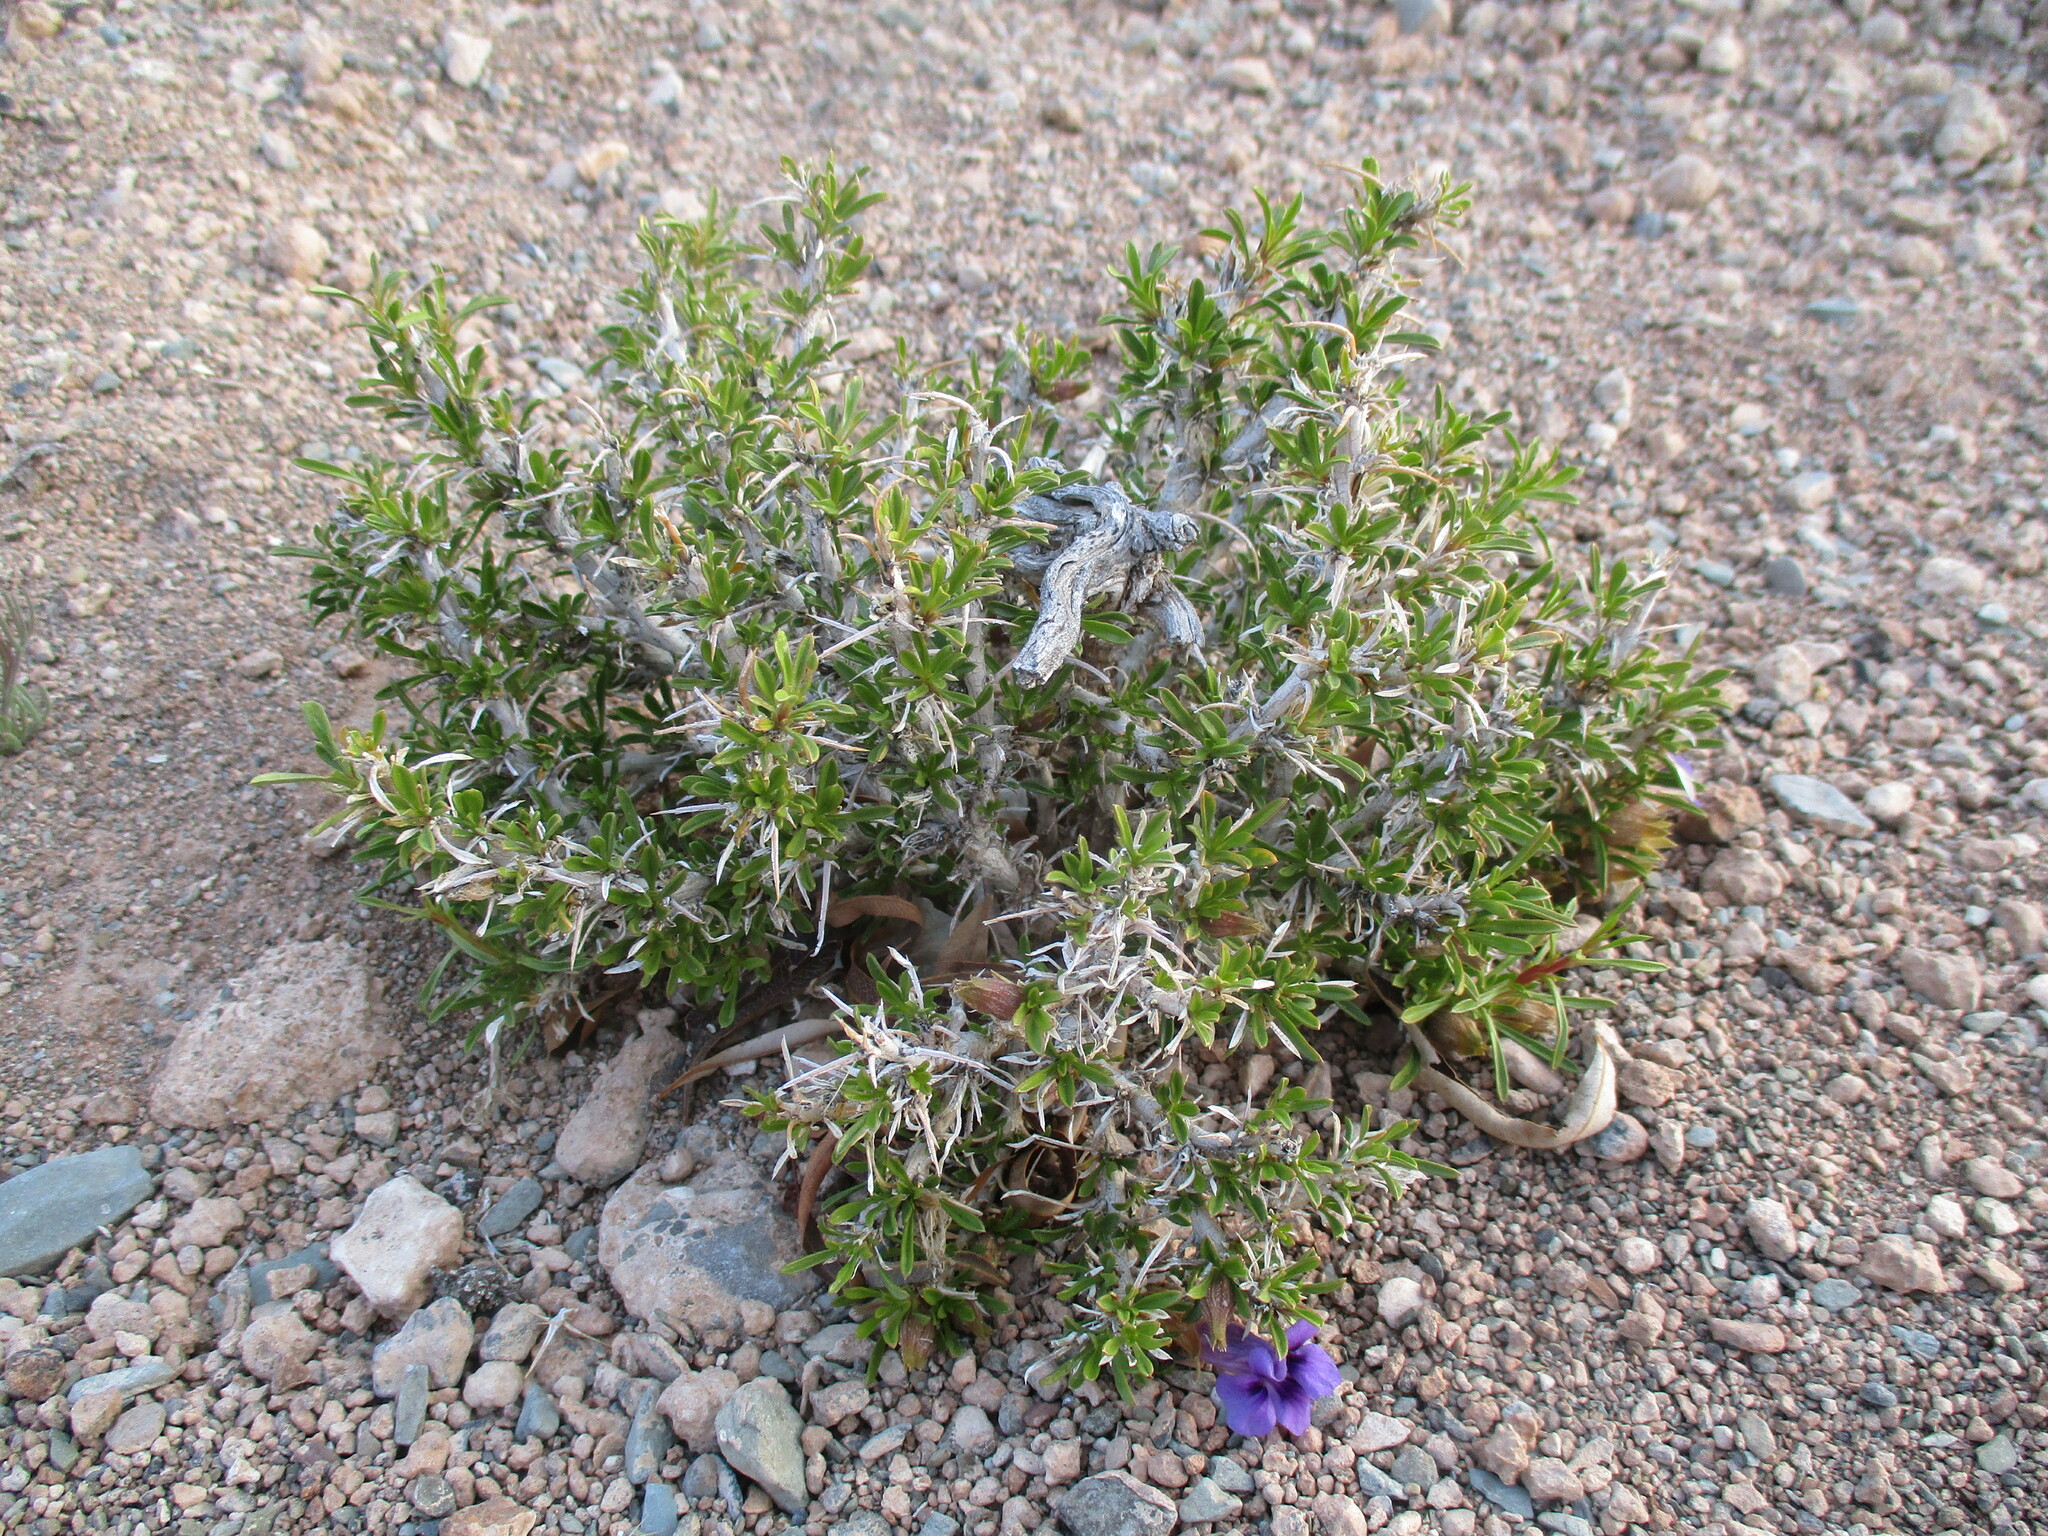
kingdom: Plantae
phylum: Tracheophyta
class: Magnoliopsida
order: Lamiales
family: Scrophulariaceae
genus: Aptosimum
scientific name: Aptosimum spinescens
